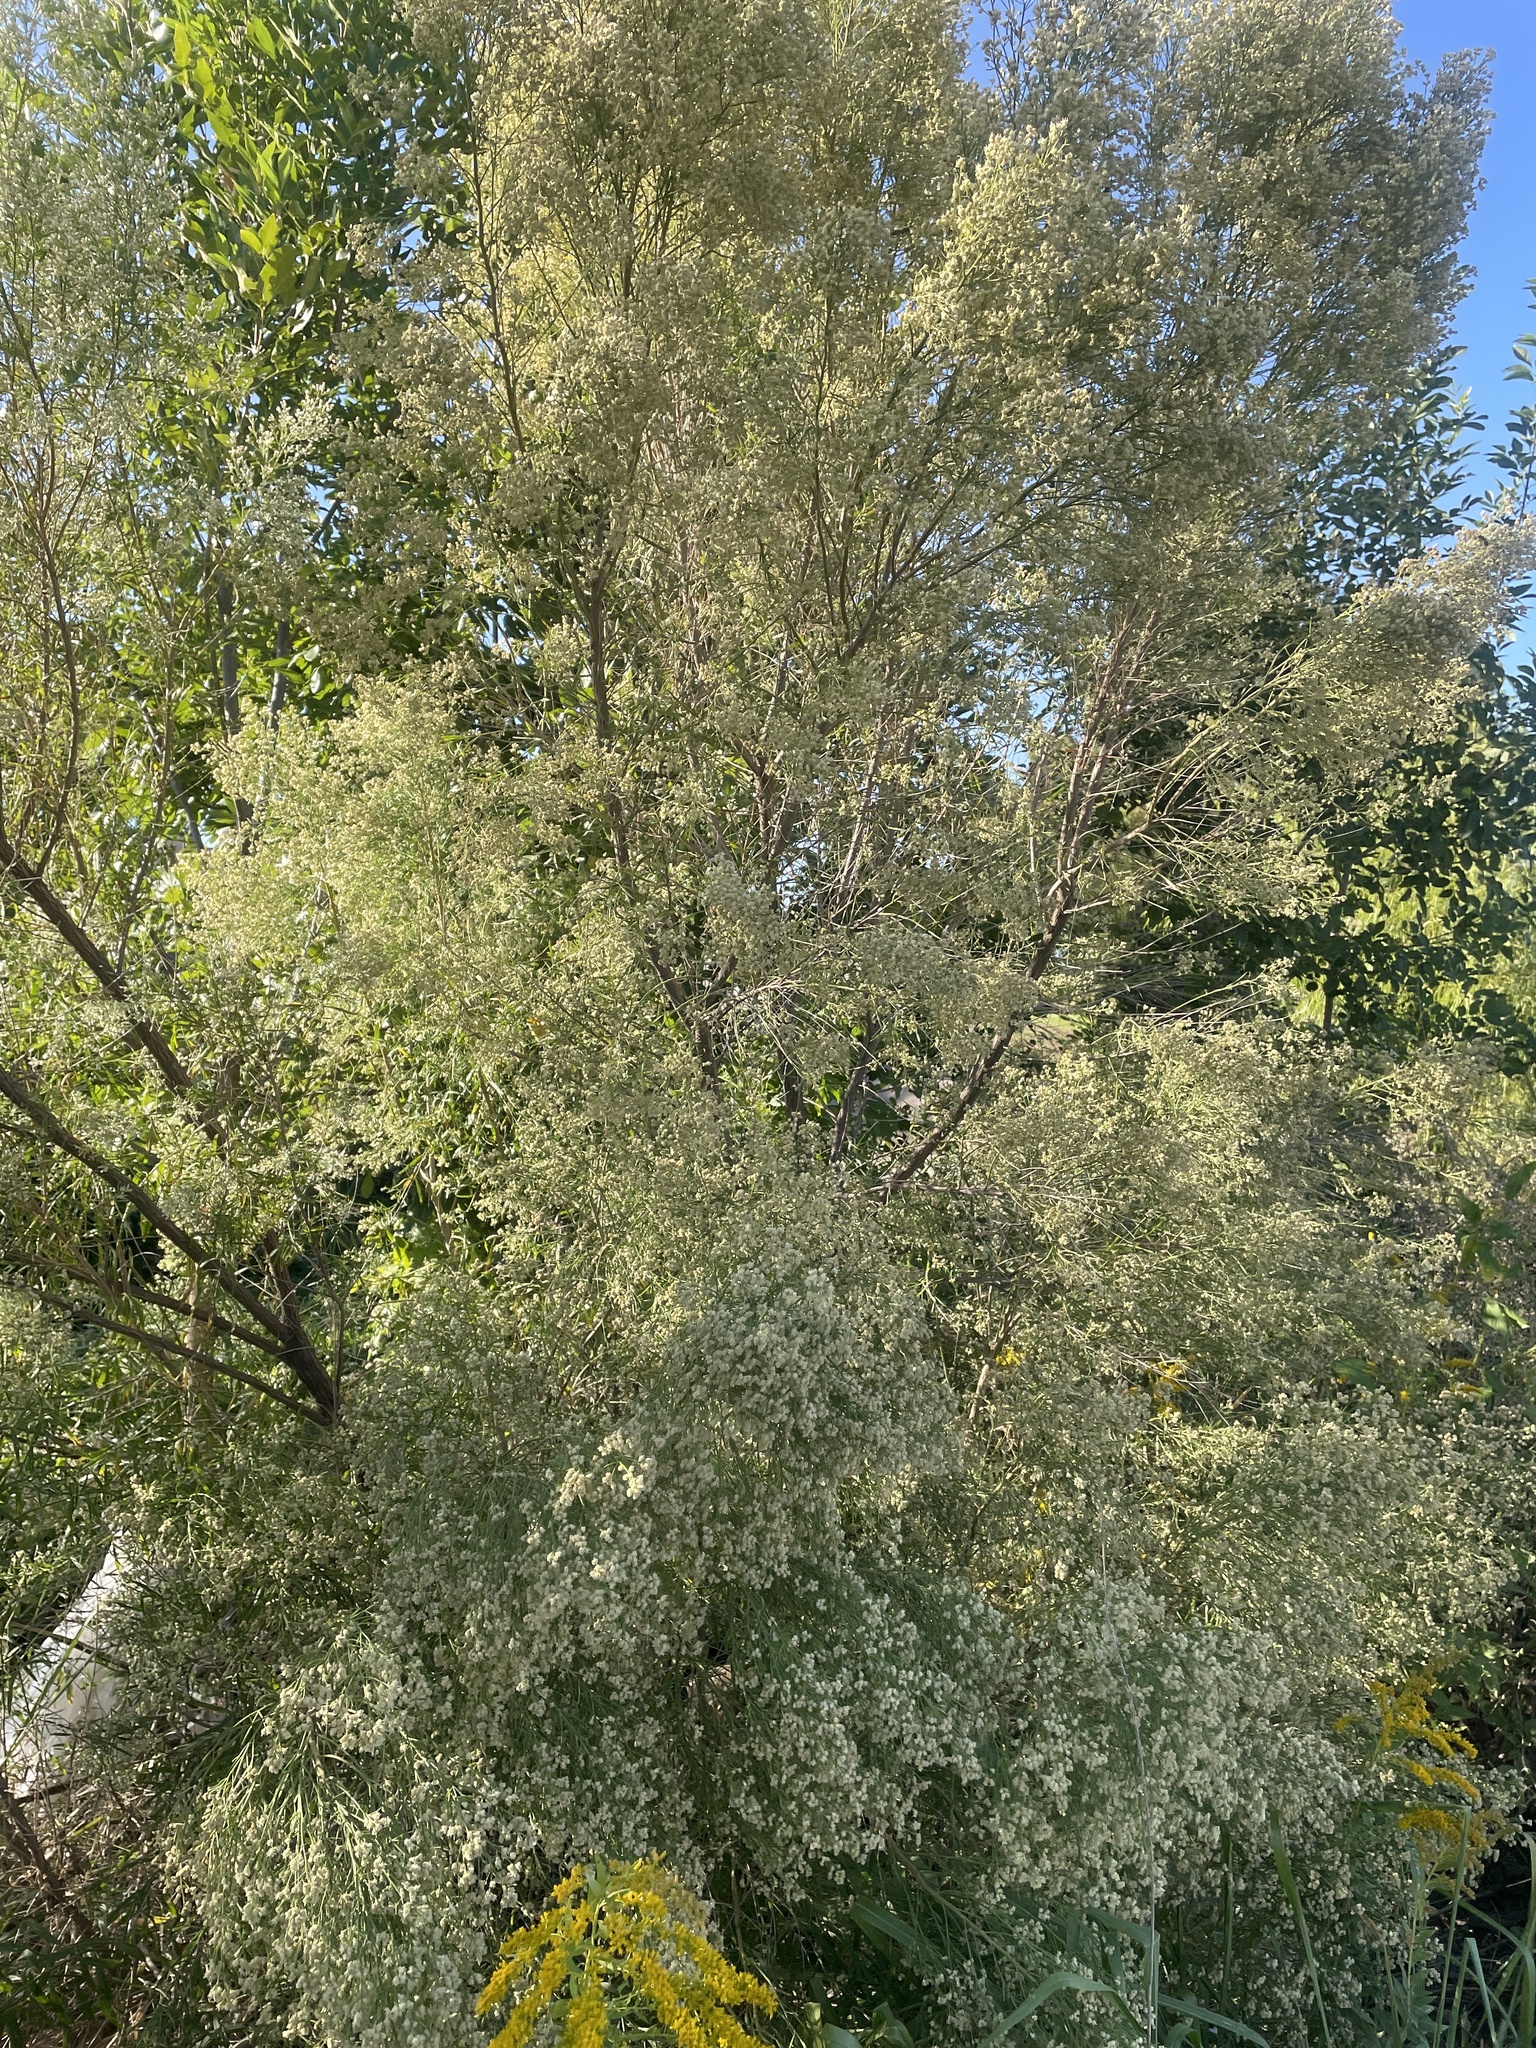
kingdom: Plantae
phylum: Tracheophyta
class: Magnoliopsida
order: Asterales
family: Asteraceae
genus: Baccharis
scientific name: Baccharis neglecta
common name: Roosevelt-weed
